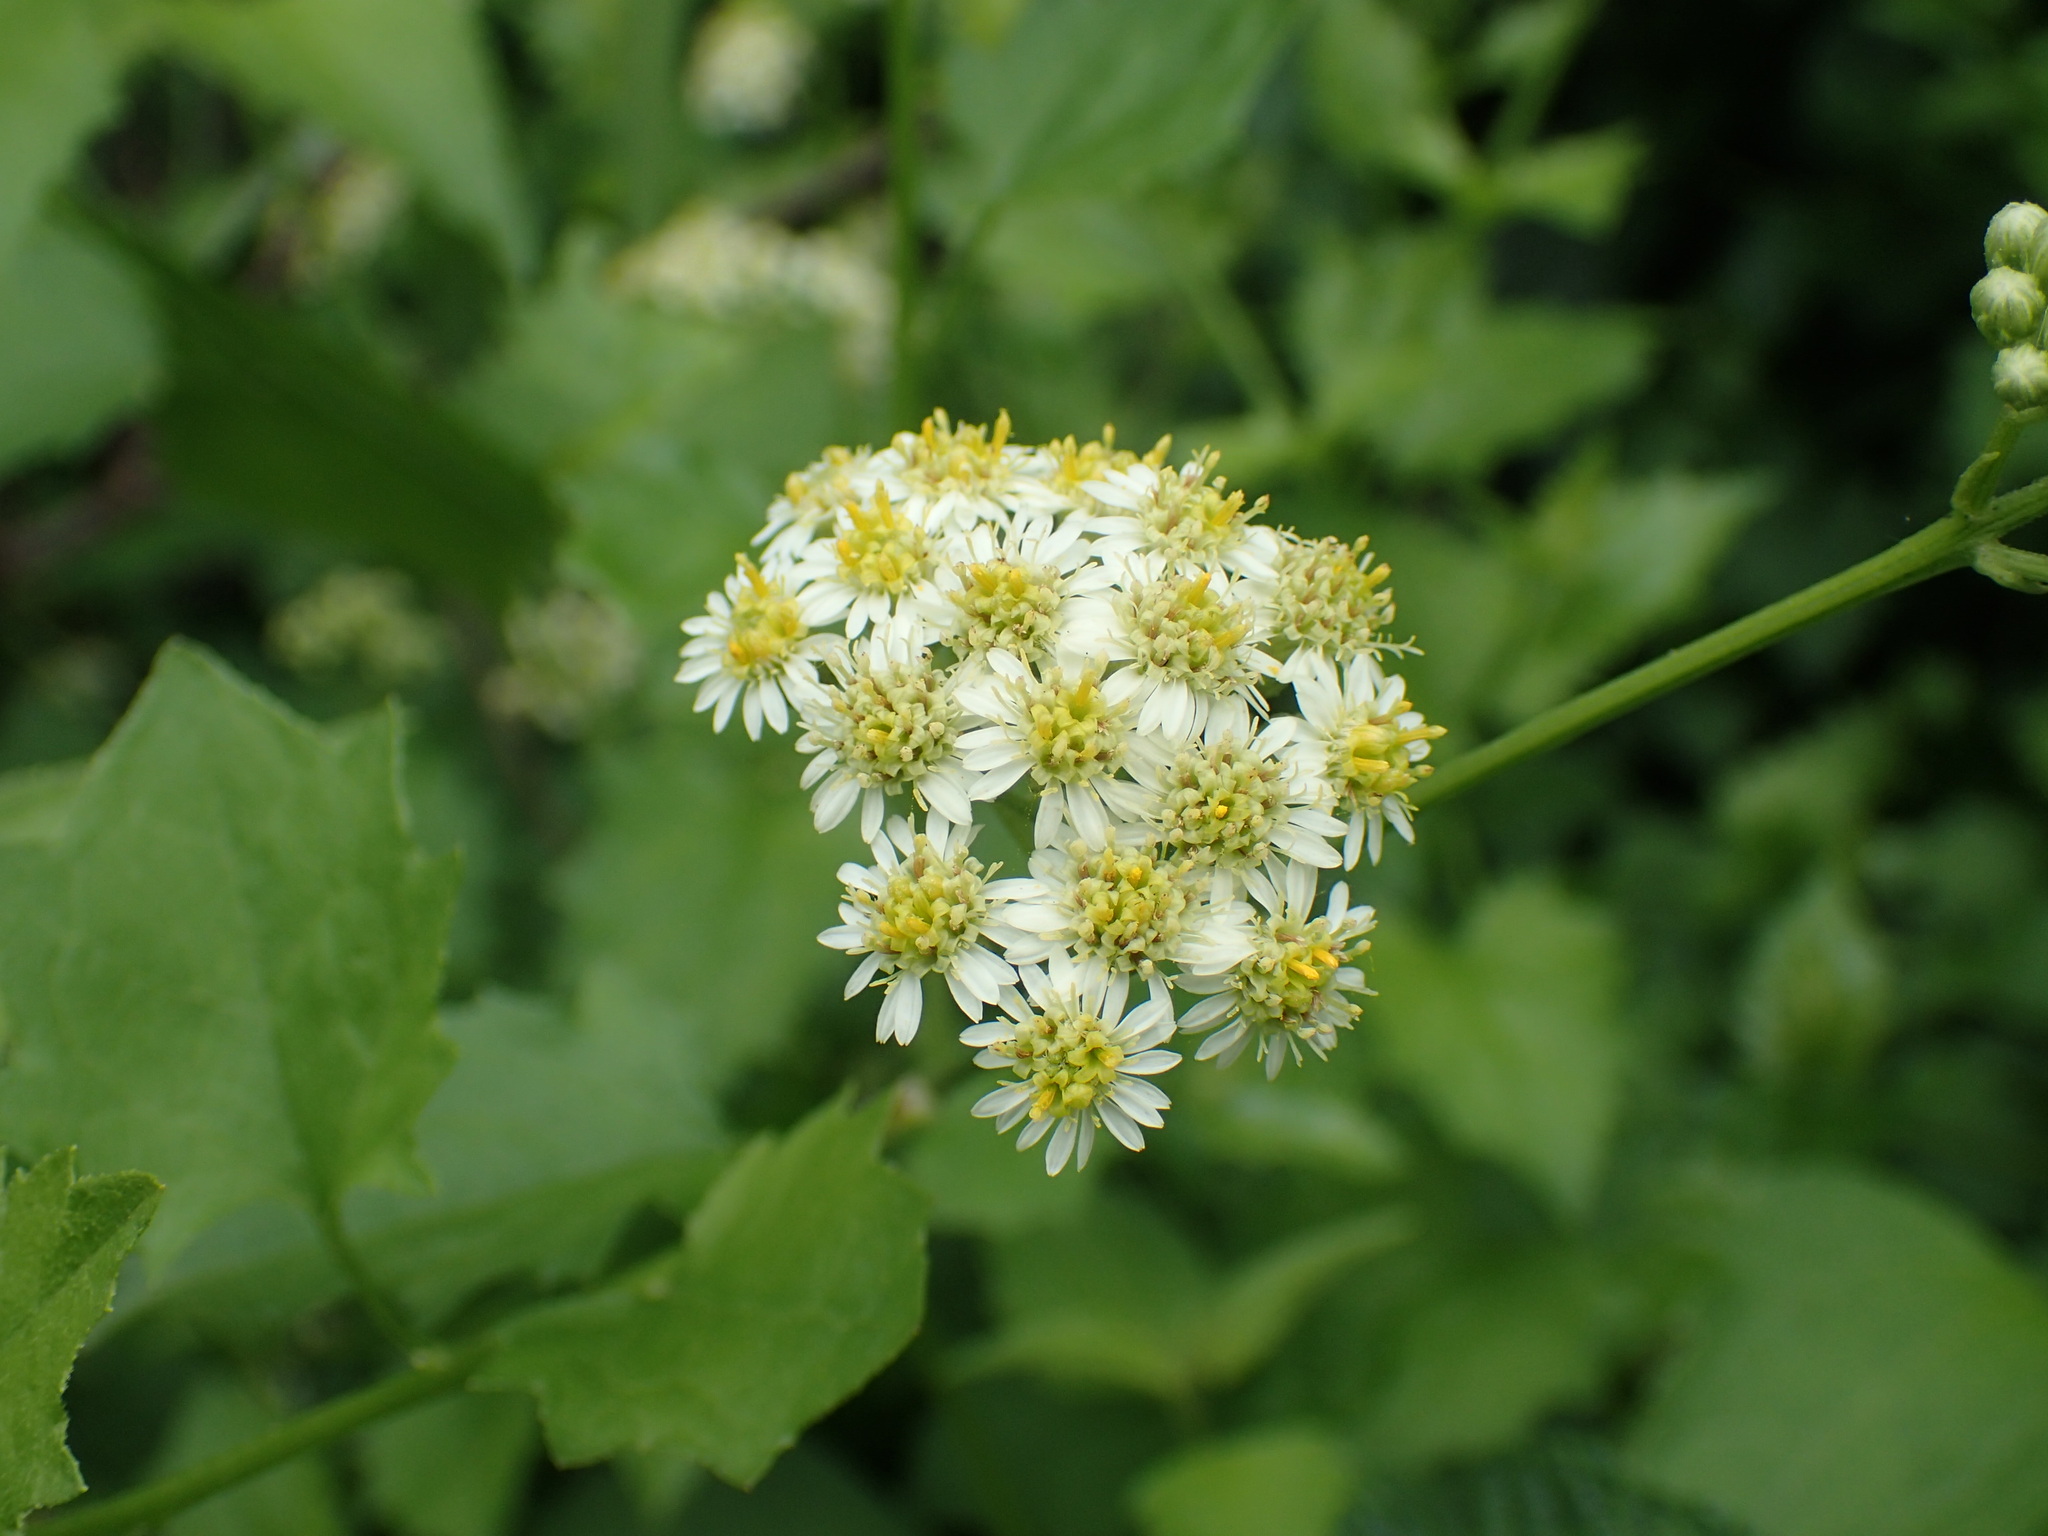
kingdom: Plantae
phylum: Tracheophyta
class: Magnoliopsida
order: Asterales
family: Asteraceae
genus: Microglossa
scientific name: Microglossa mespilifolia
